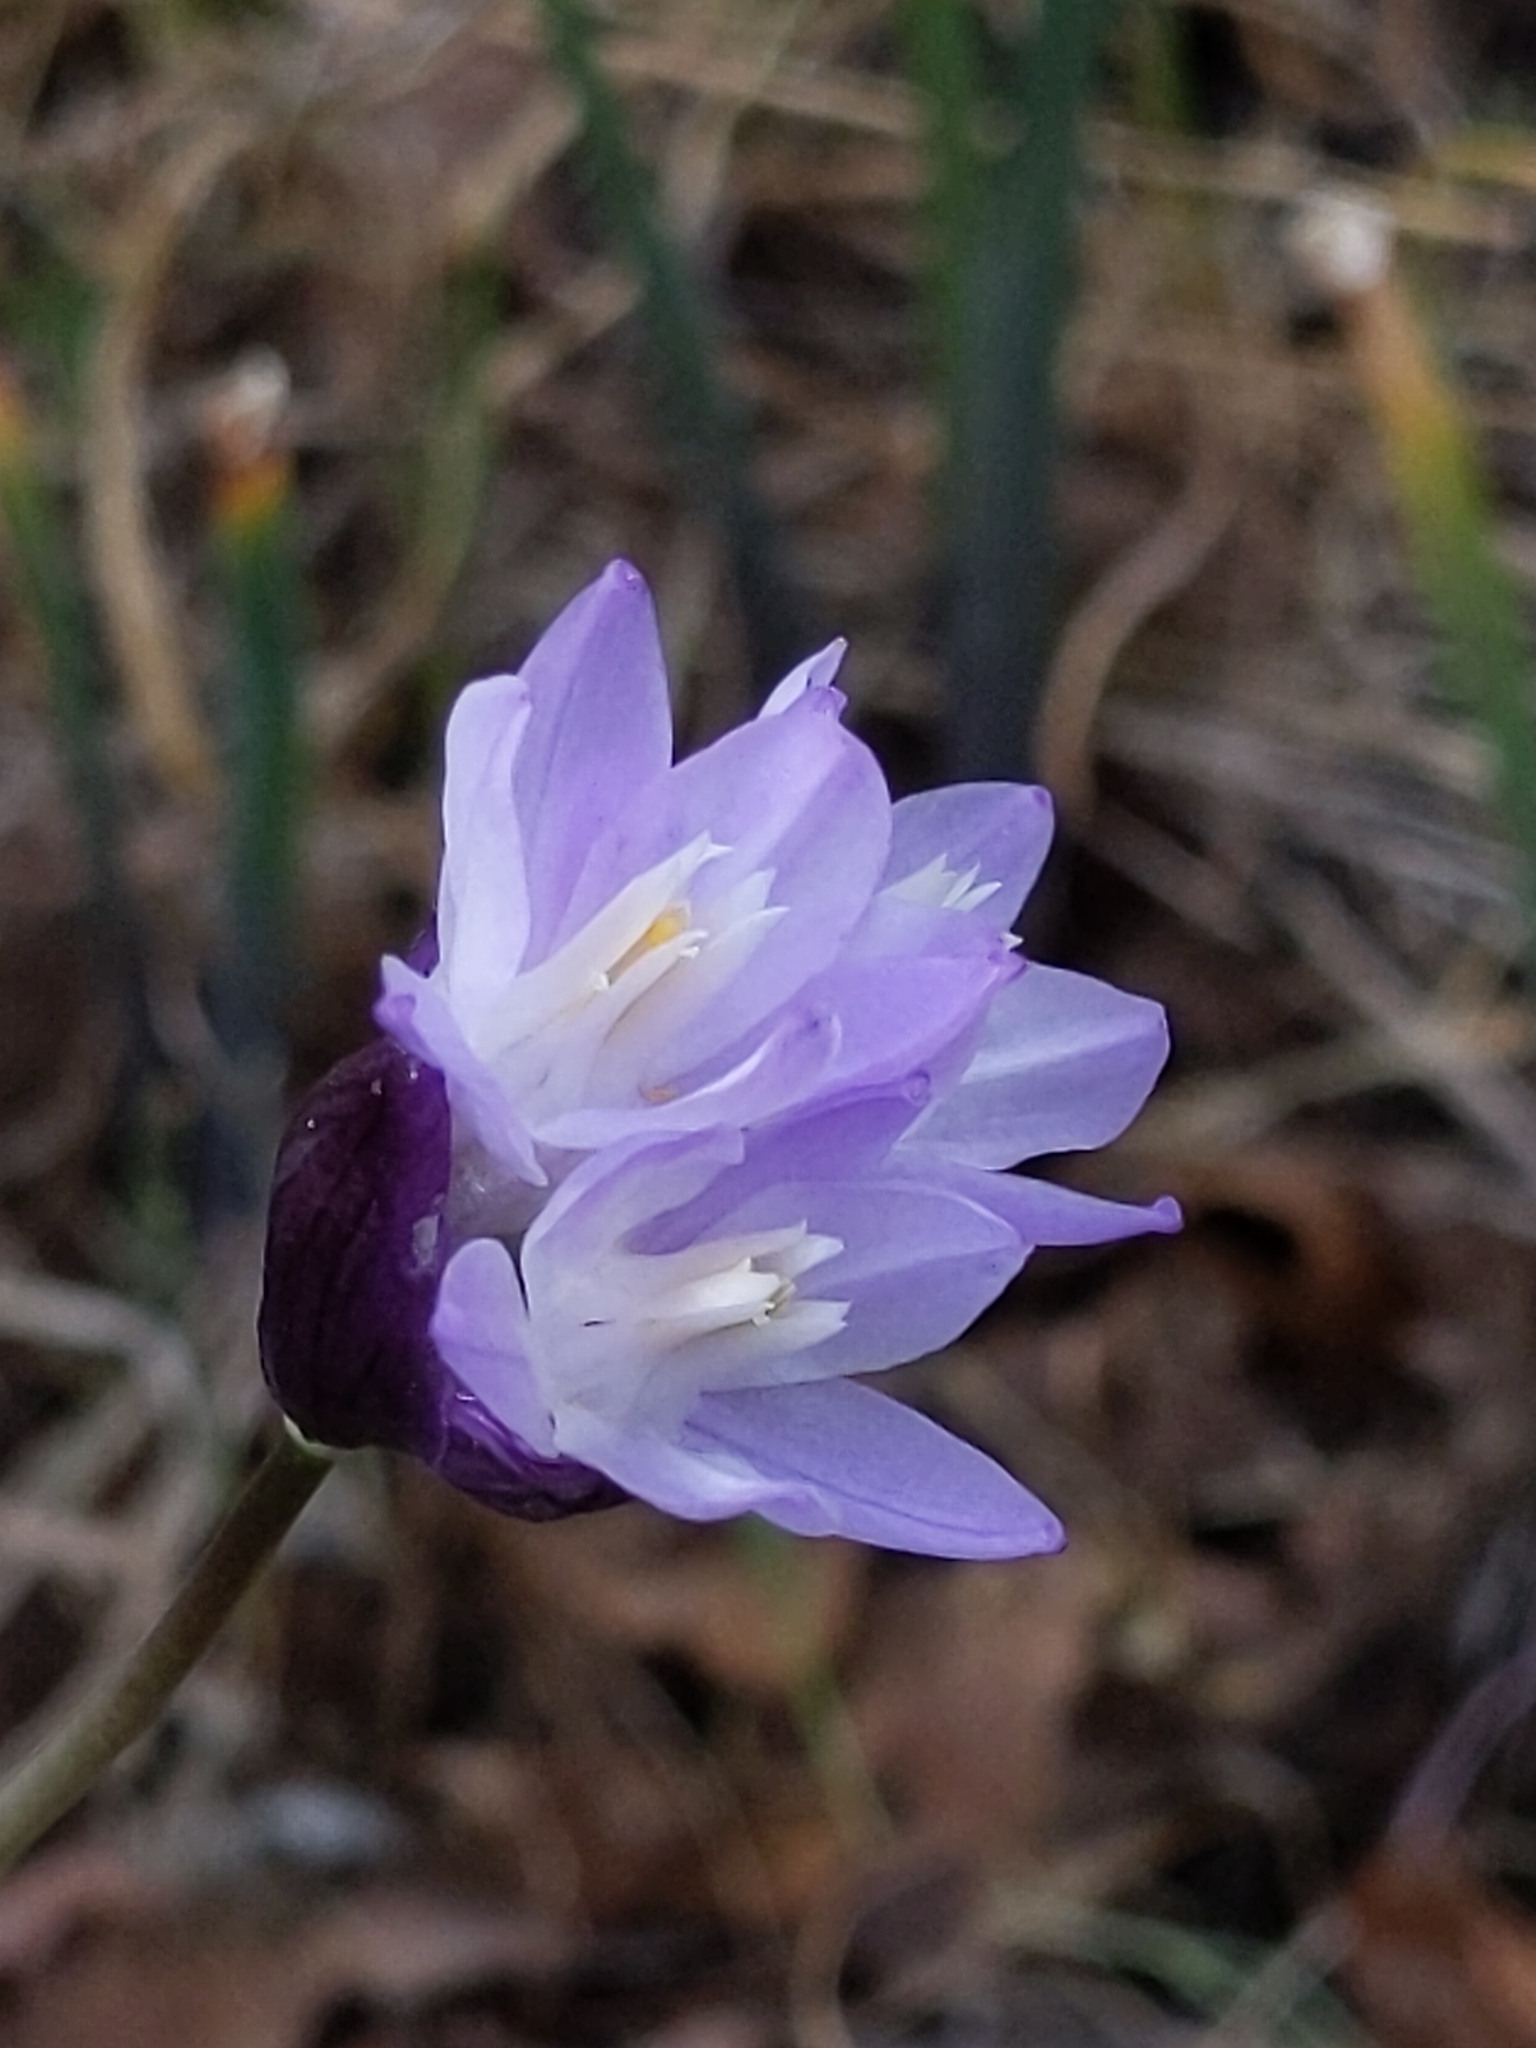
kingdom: Plantae
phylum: Tracheophyta
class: Liliopsida
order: Asparagales
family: Asparagaceae
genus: Dipterostemon
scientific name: Dipterostemon capitatus
